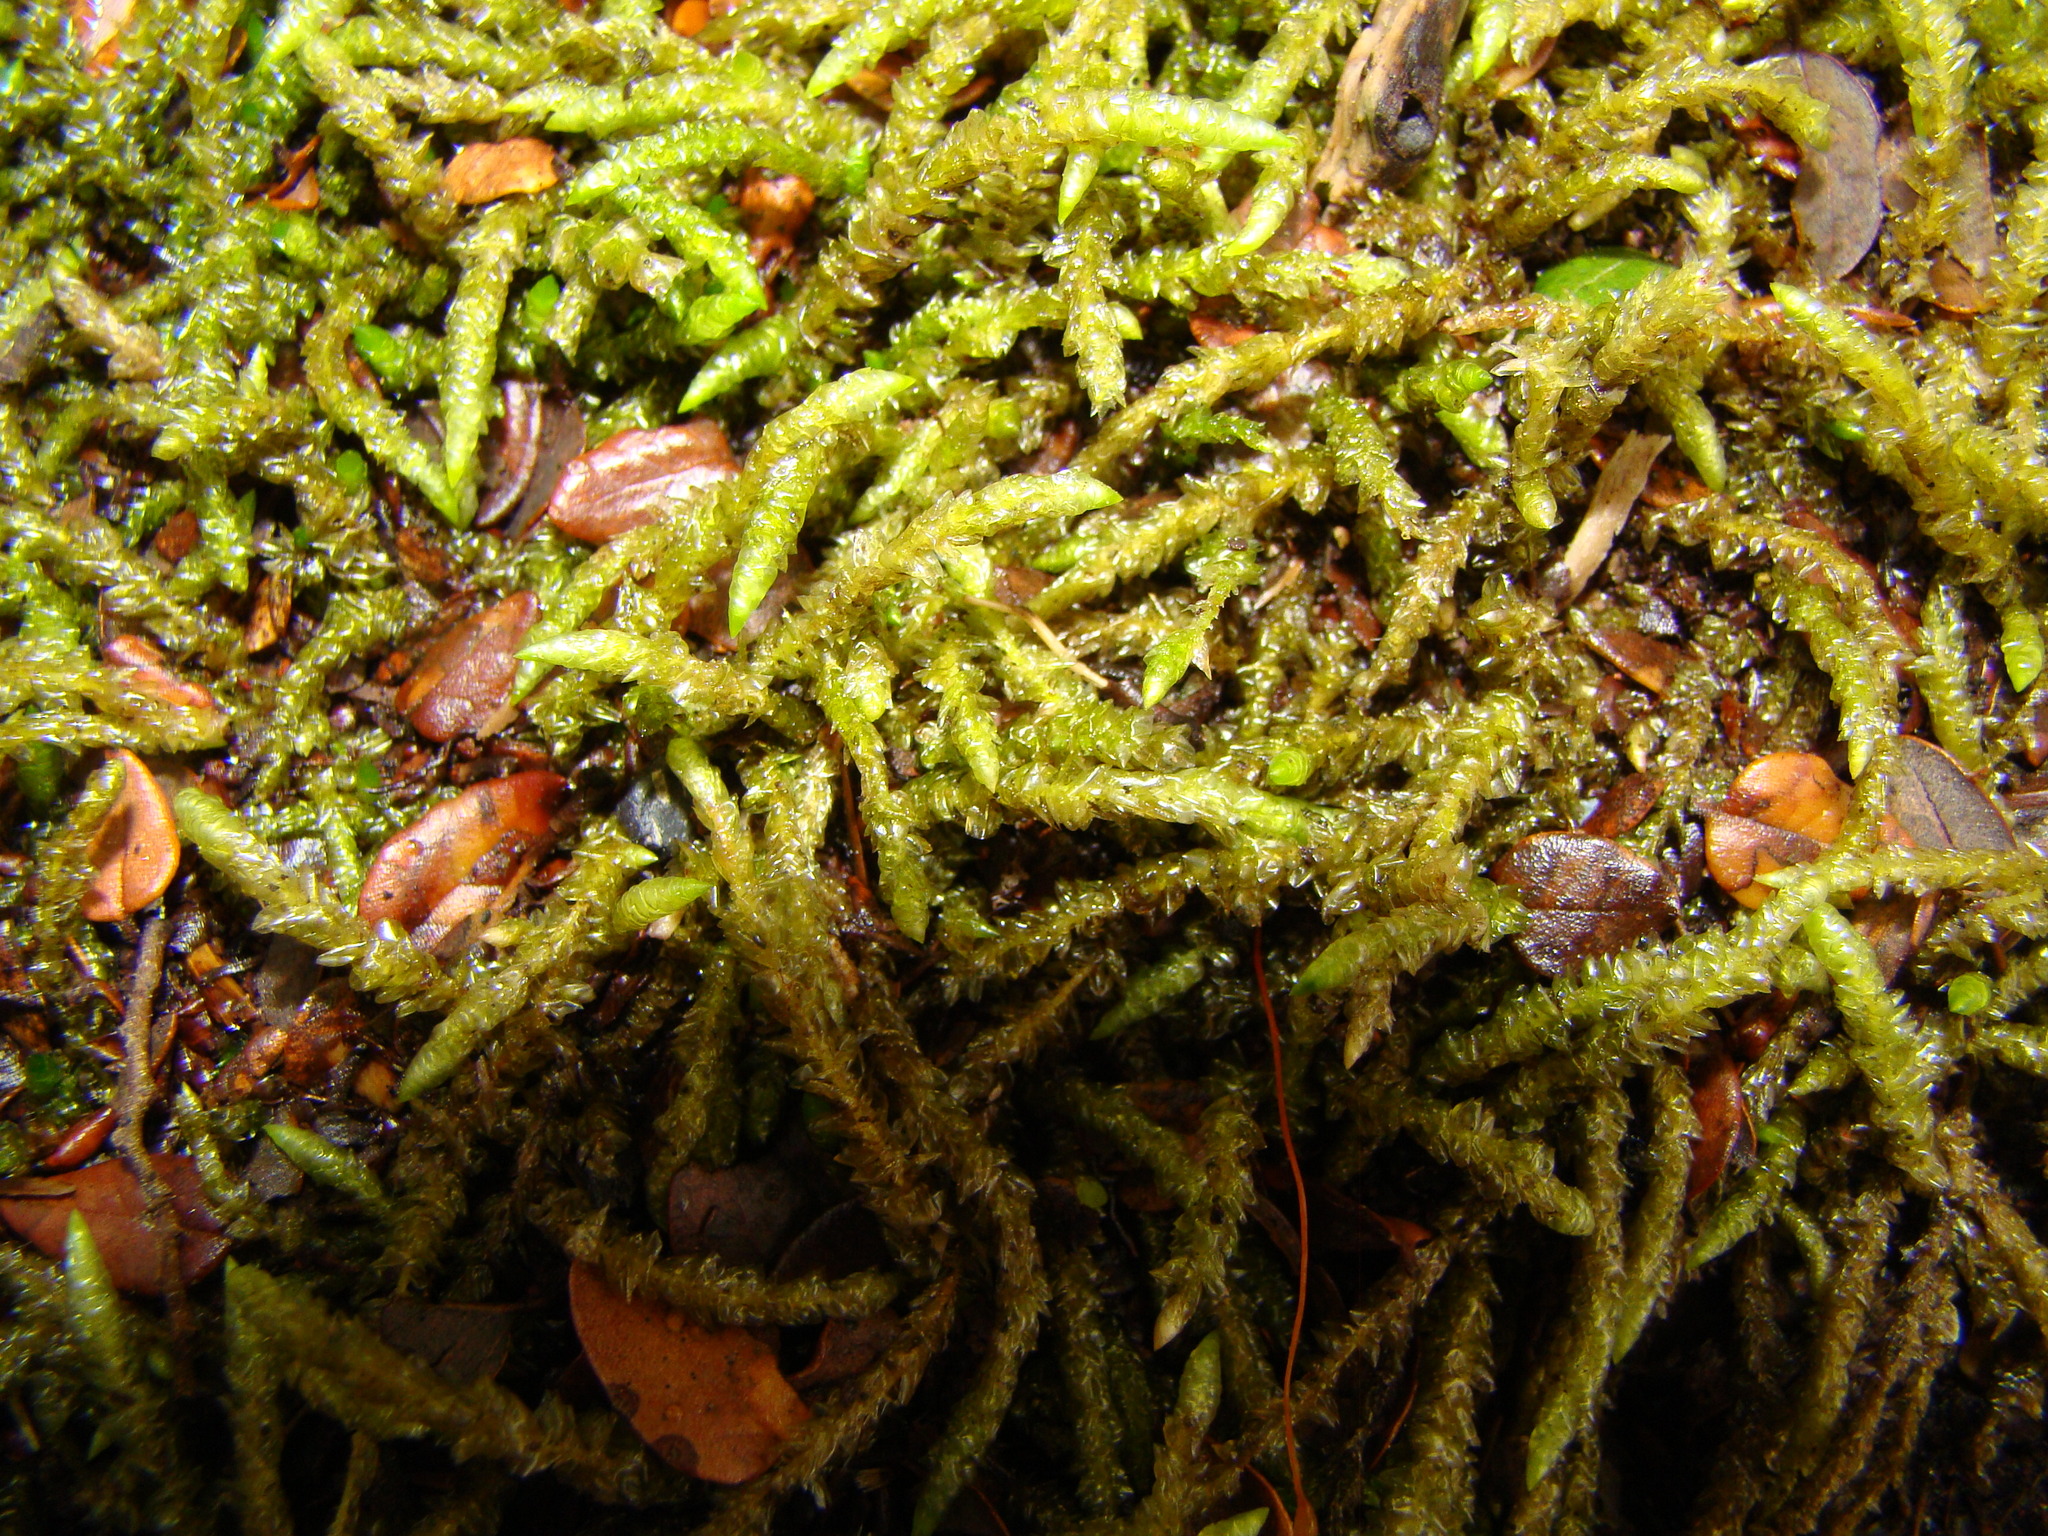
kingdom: Plantae
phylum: Bryophyta
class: Bryopsida
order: Hypnales
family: Acrocladiaceae
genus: Acrocladium
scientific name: Acrocladium chlamydophyllum
